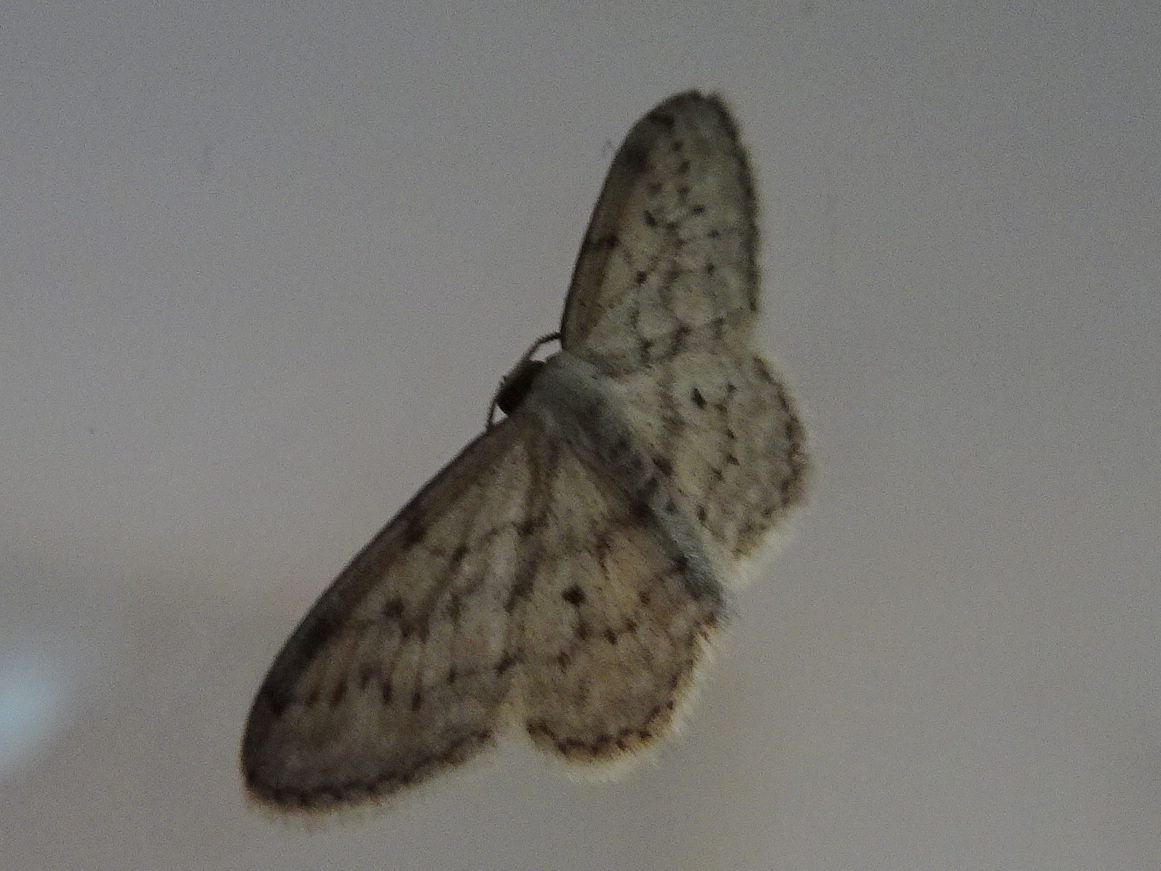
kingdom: Animalia
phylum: Arthropoda
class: Insecta
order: Lepidoptera
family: Geometridae
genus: Idaea
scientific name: Idaea seriata
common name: Small dusty wave
